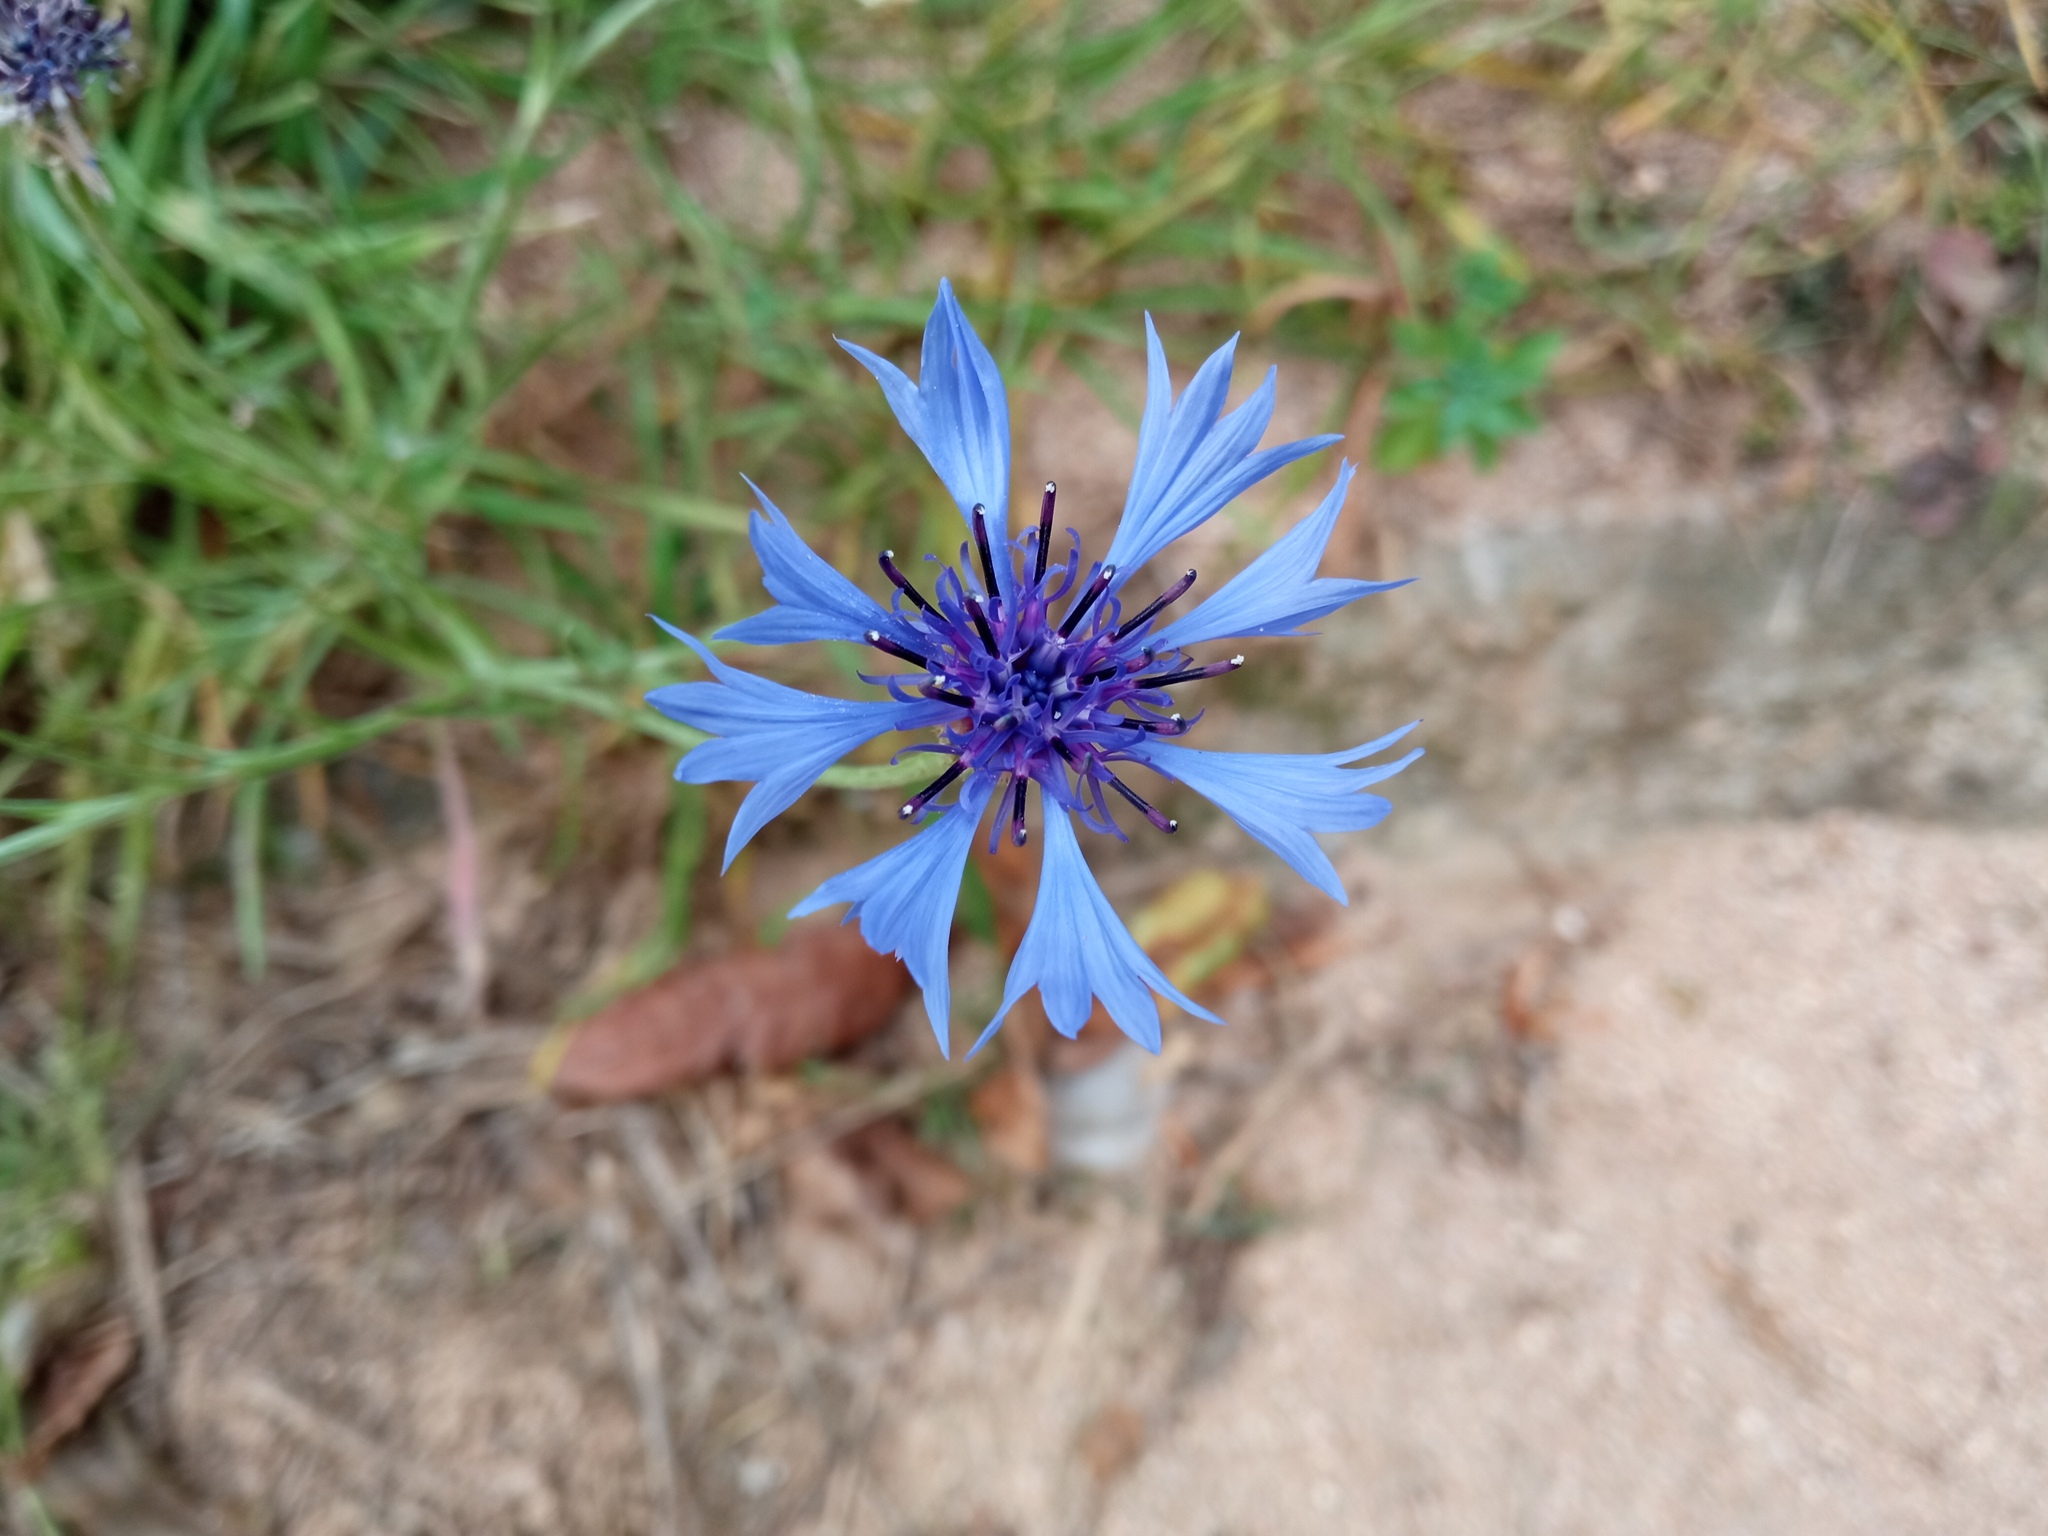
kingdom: Plantae
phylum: Tracheophyta
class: Magnoliopsida
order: Asterales
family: Asteraceae
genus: Centaurea
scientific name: Centaurea cyanus
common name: Cornflower
